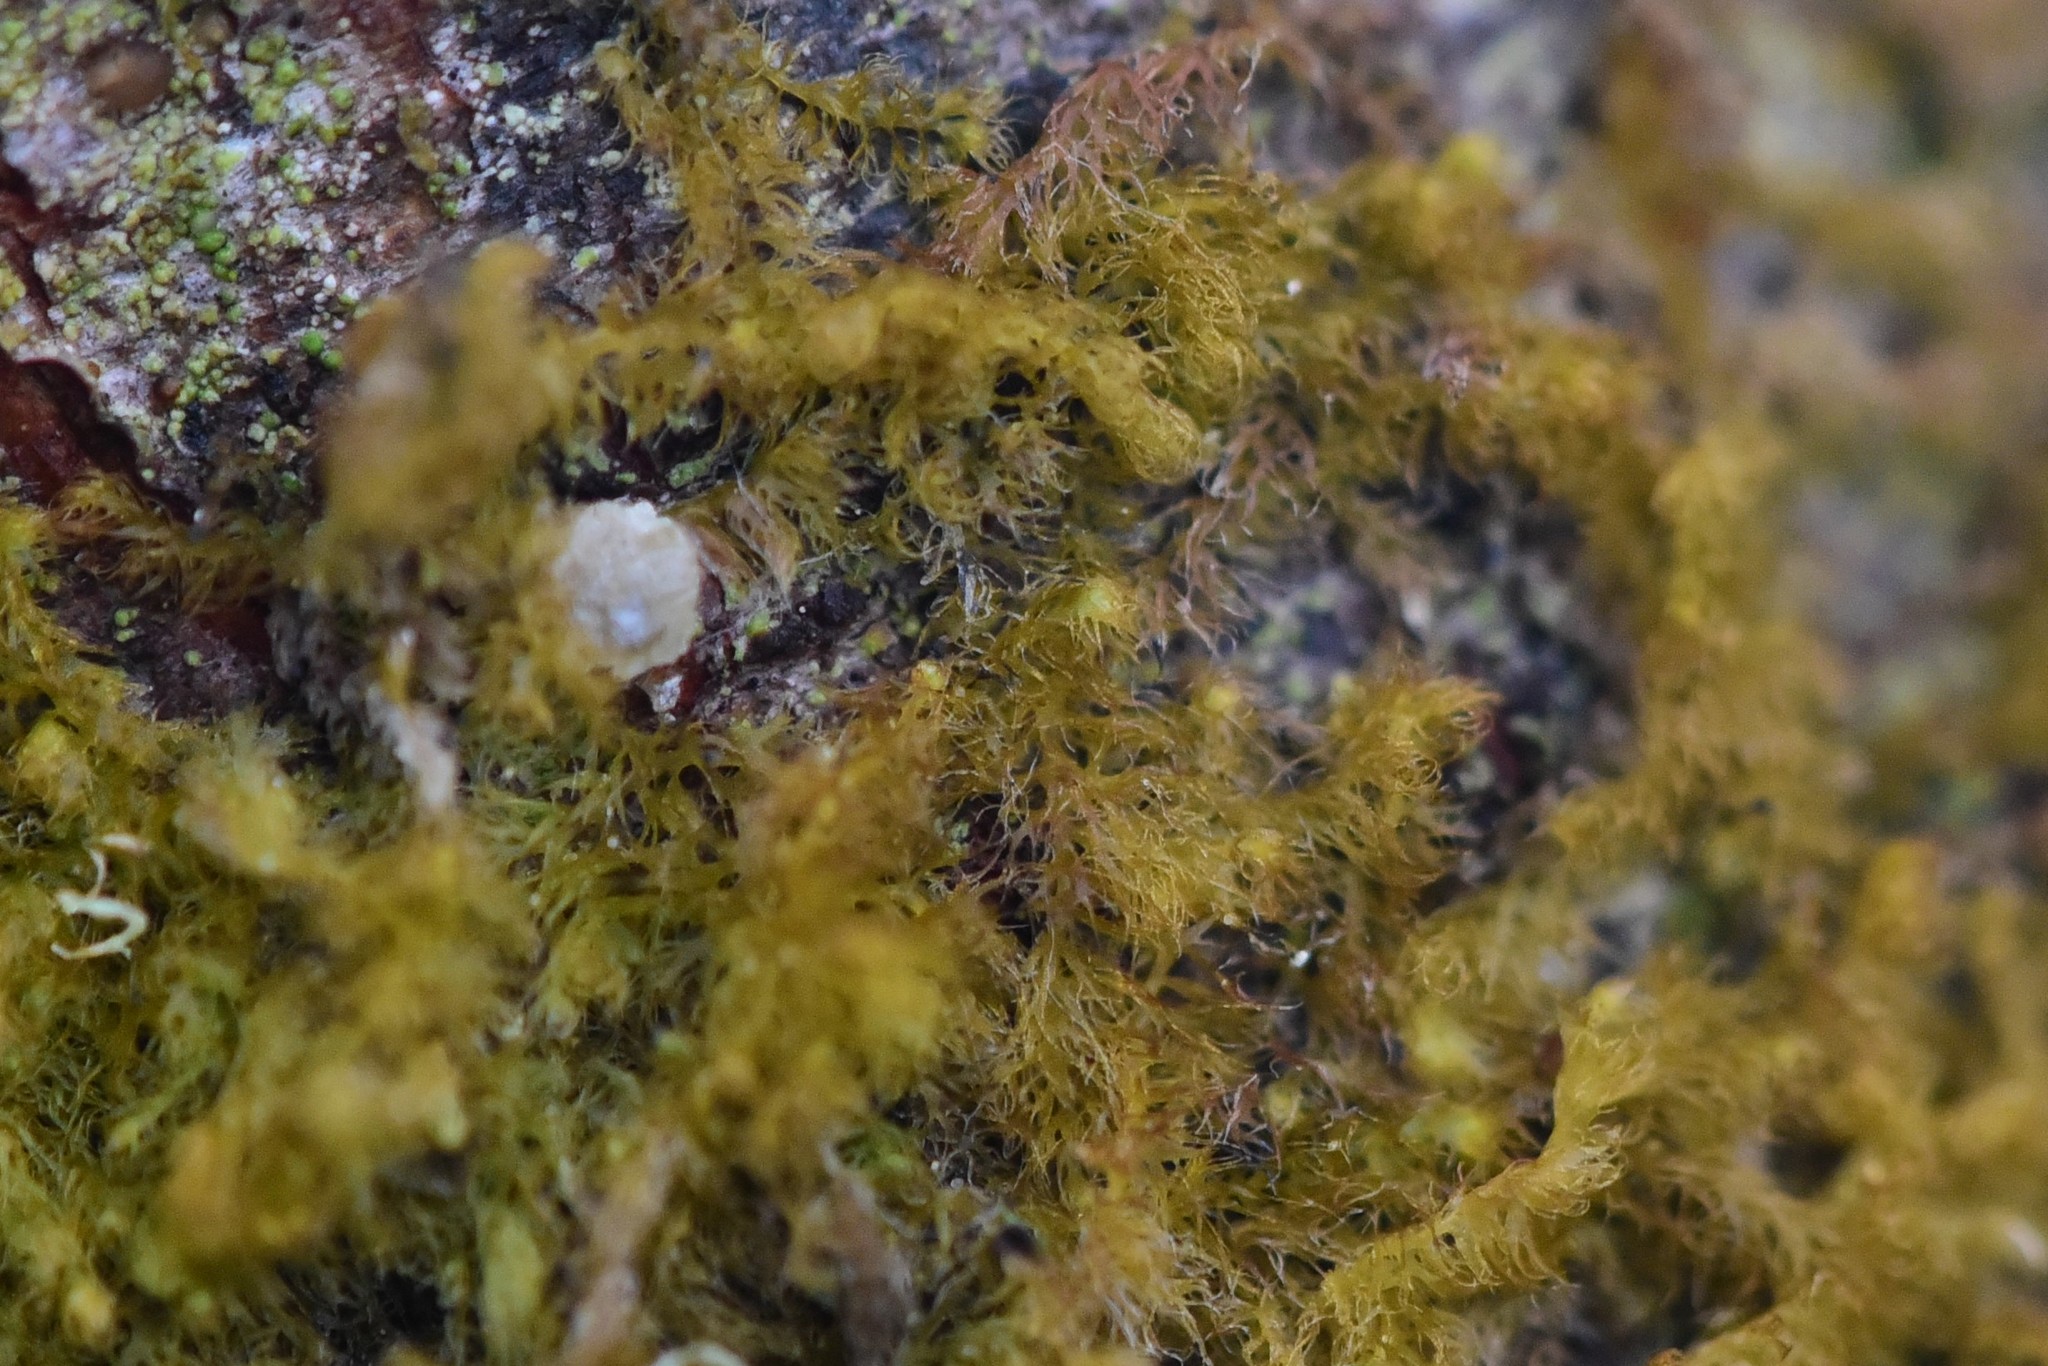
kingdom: Plantae
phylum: Marchantiophyta
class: Jungermanniopsida
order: Ptilidiales
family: Ptilidiaceae
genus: Ptilidium
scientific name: Ptilidium pulcherrimum
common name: Tree fringewort
